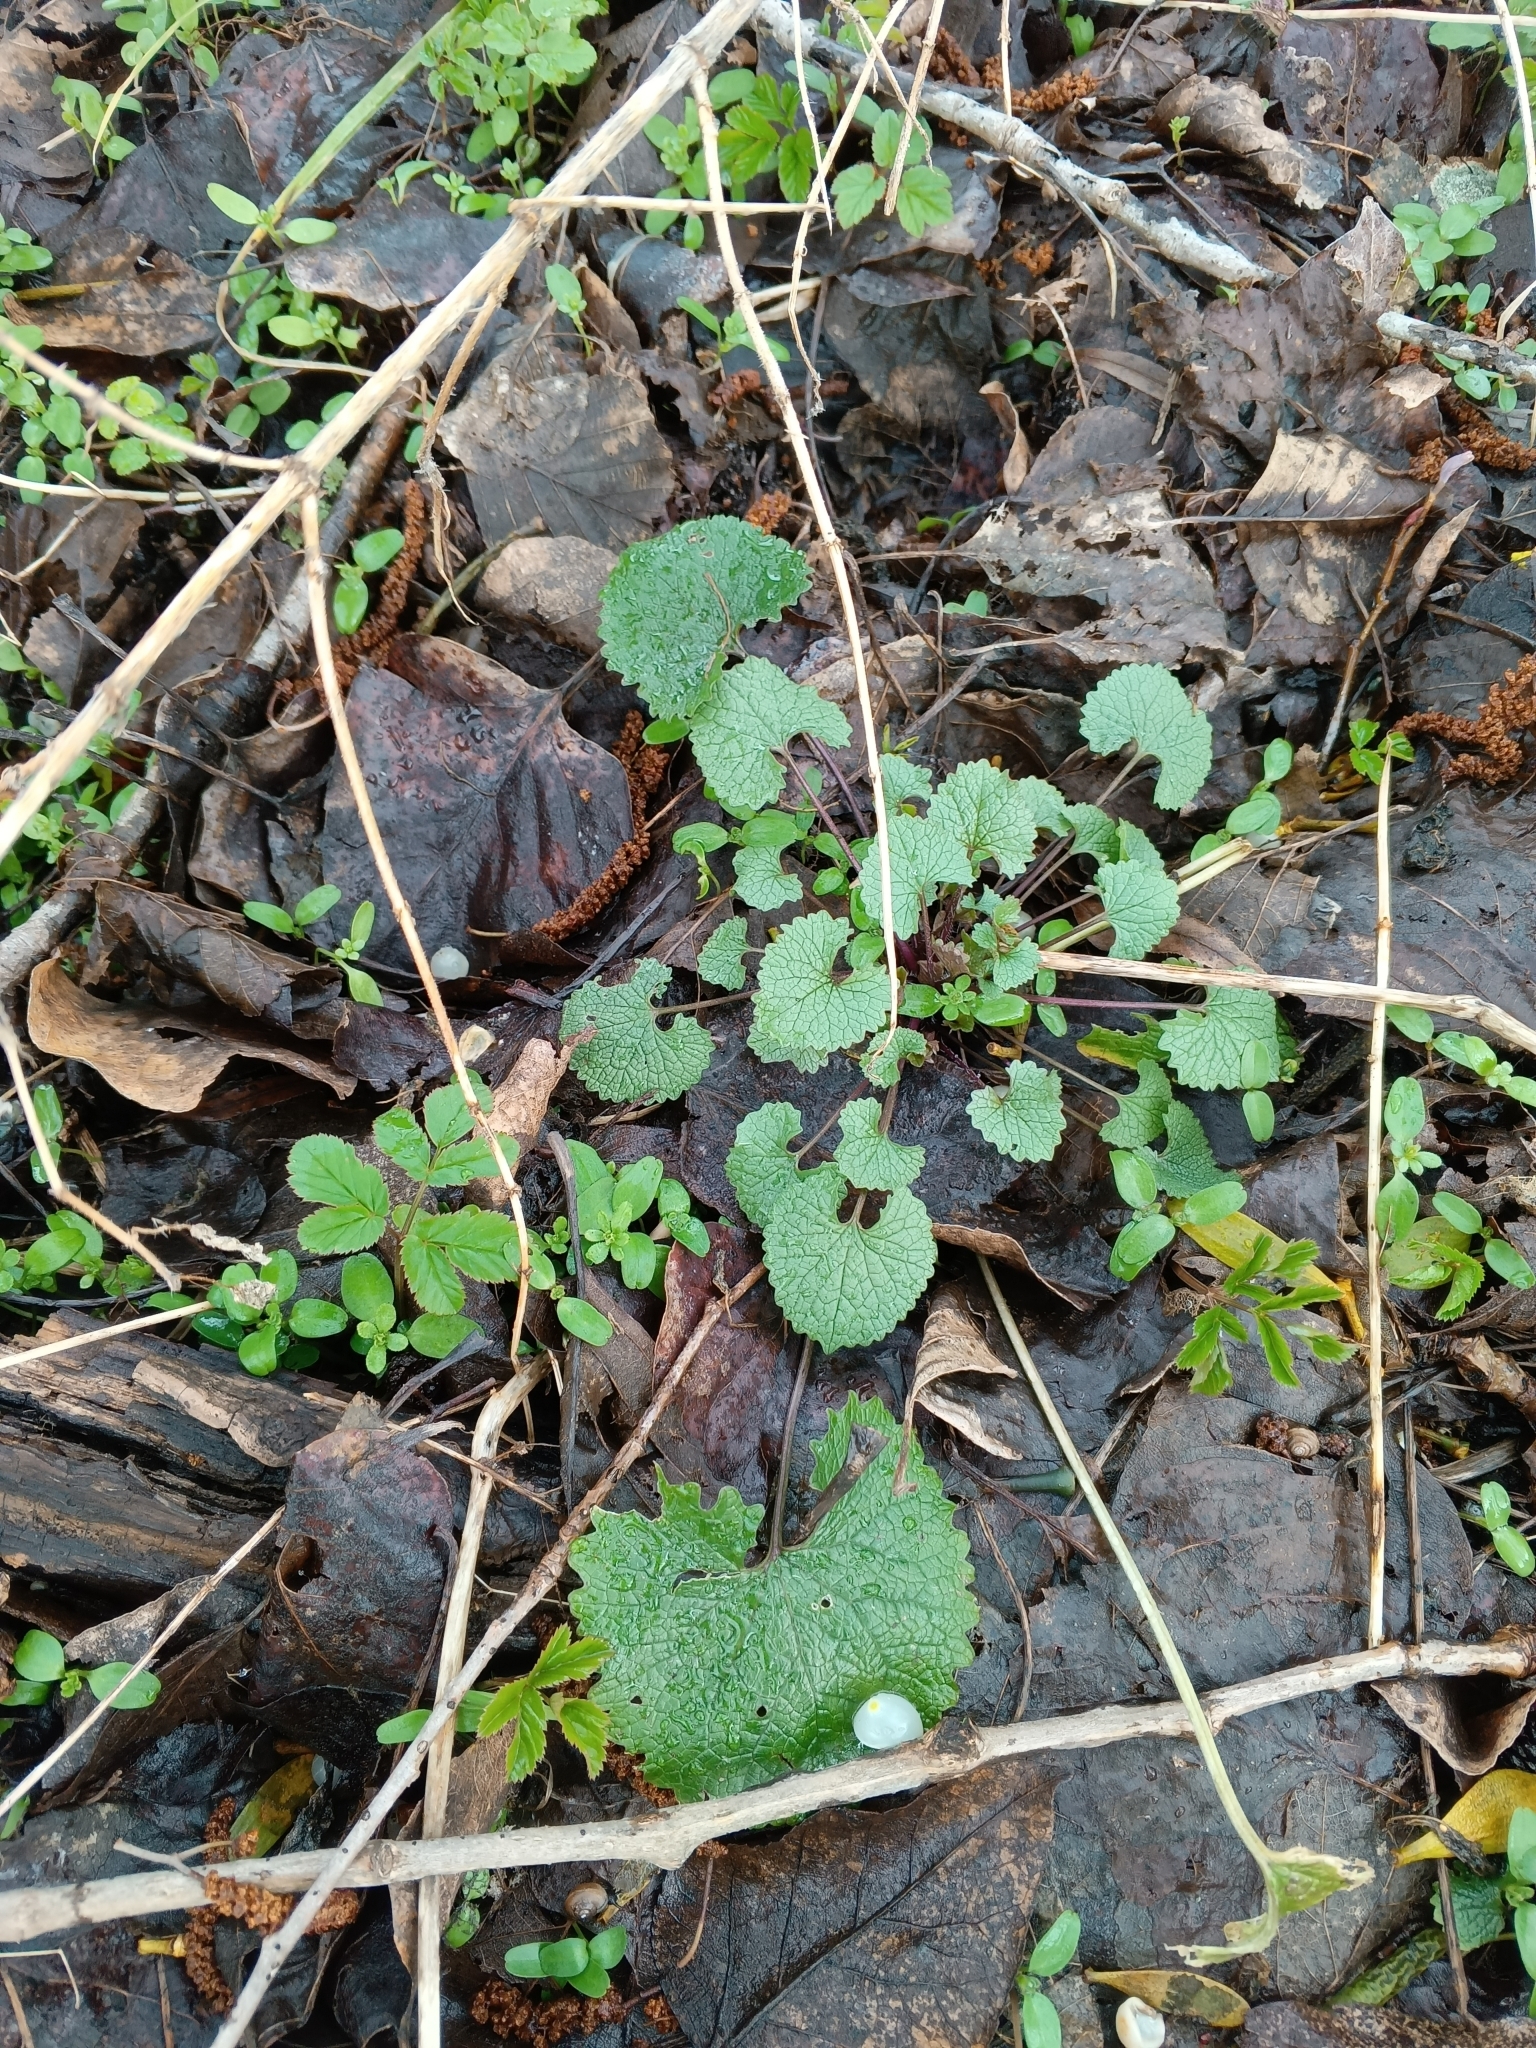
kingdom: Plantae
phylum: Tracheophyta
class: Magnoliopsida
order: Brassicales
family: Brassicaceae
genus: Alliaria
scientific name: Alliaria petiolata
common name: Garlic mustard
